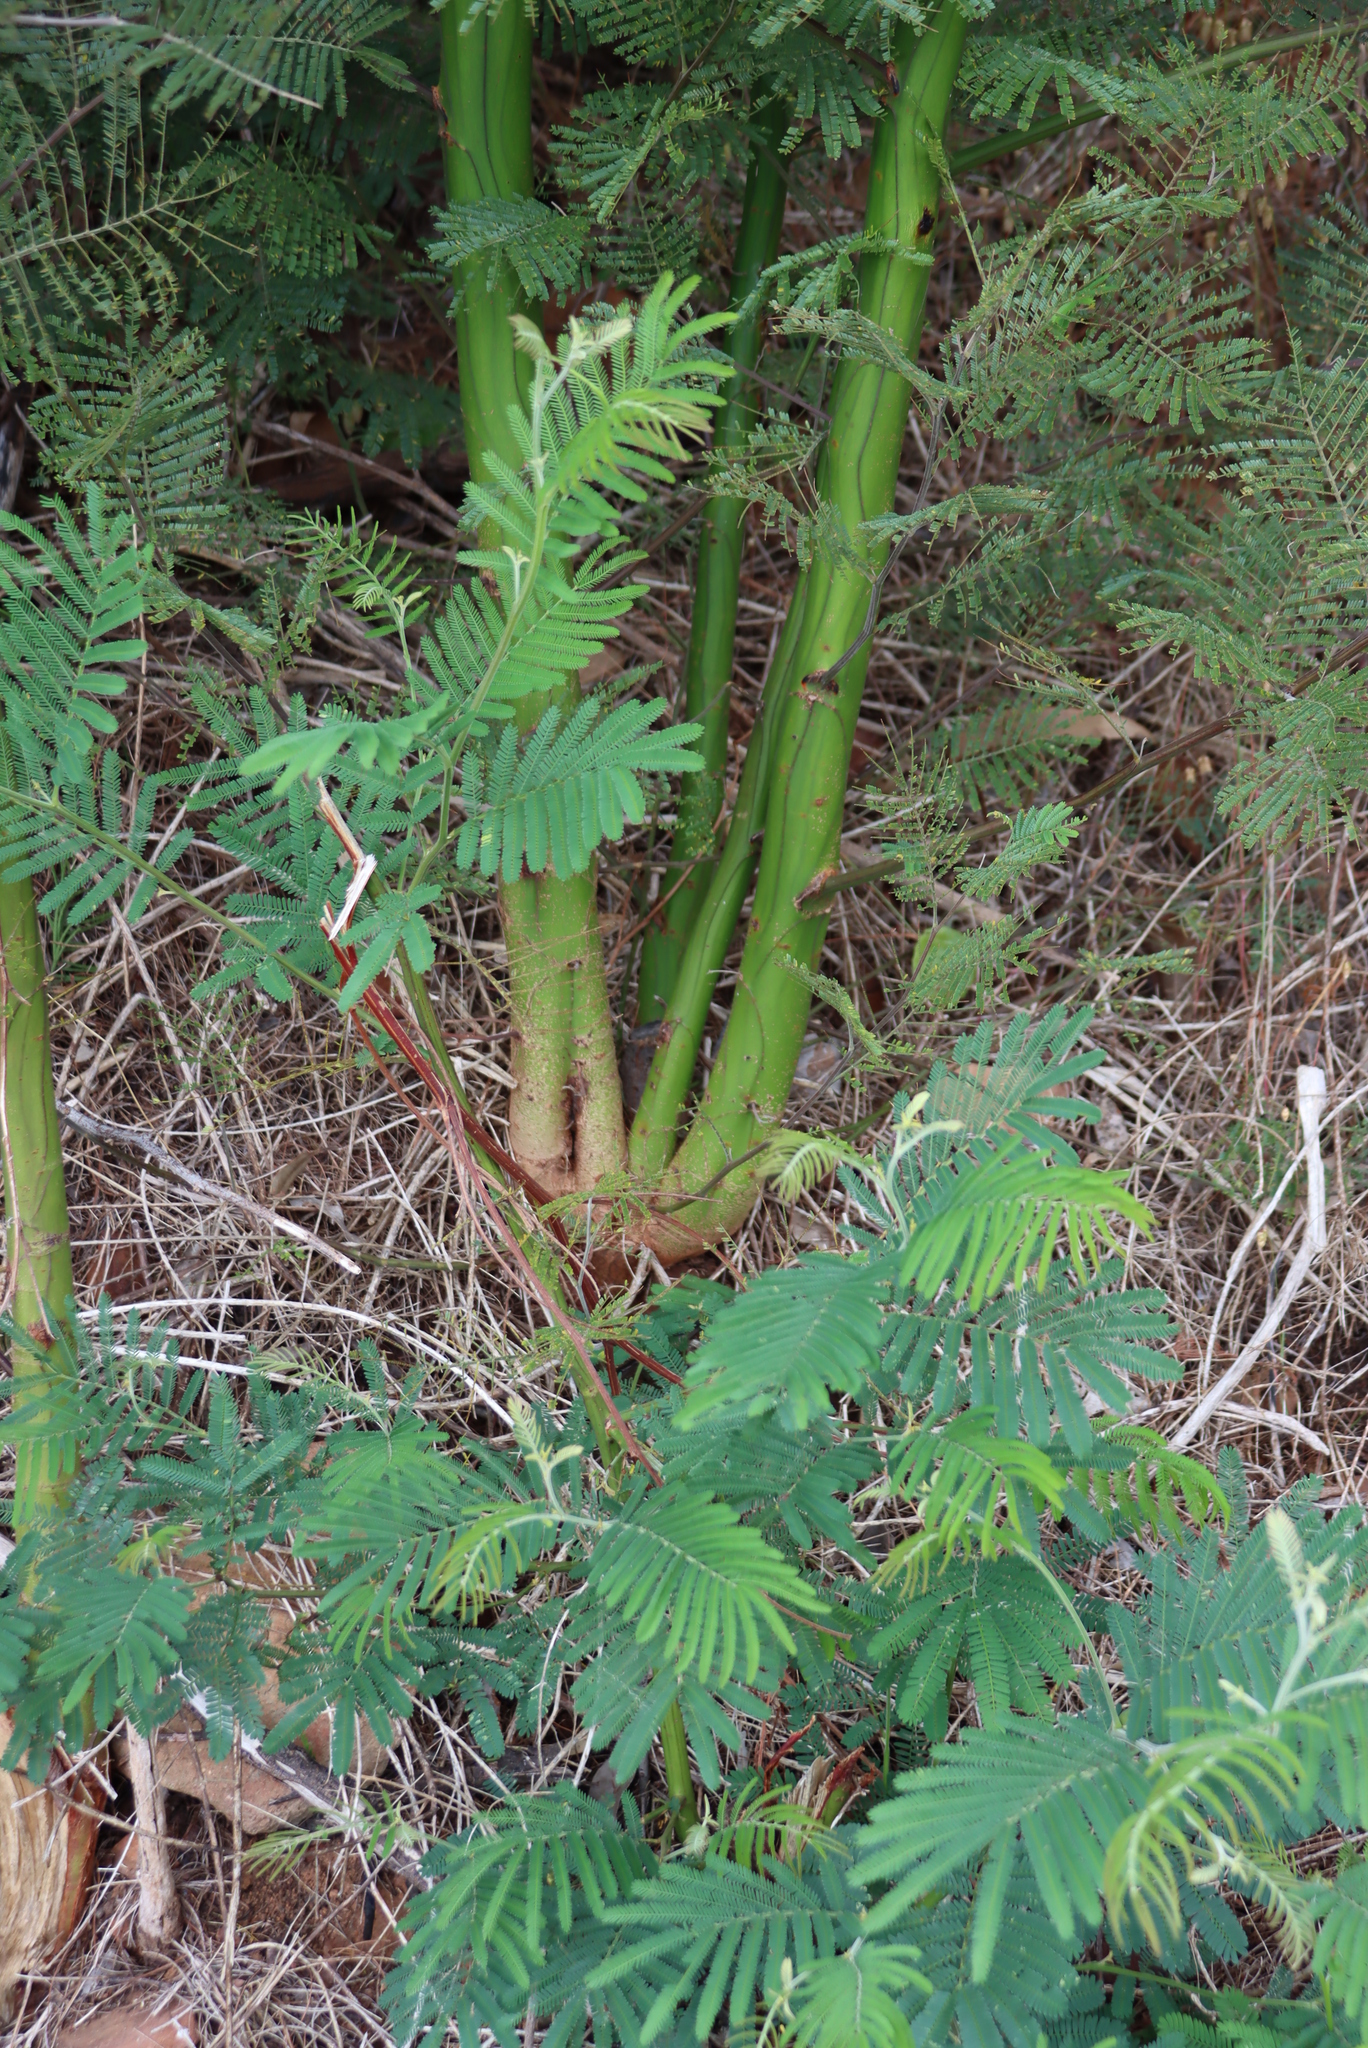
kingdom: Plantae
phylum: Tracheophyta
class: Magnoliopsida
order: Fabales
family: Fabaceae
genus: Acacia
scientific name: Acacia mearnsii
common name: Black wattle
